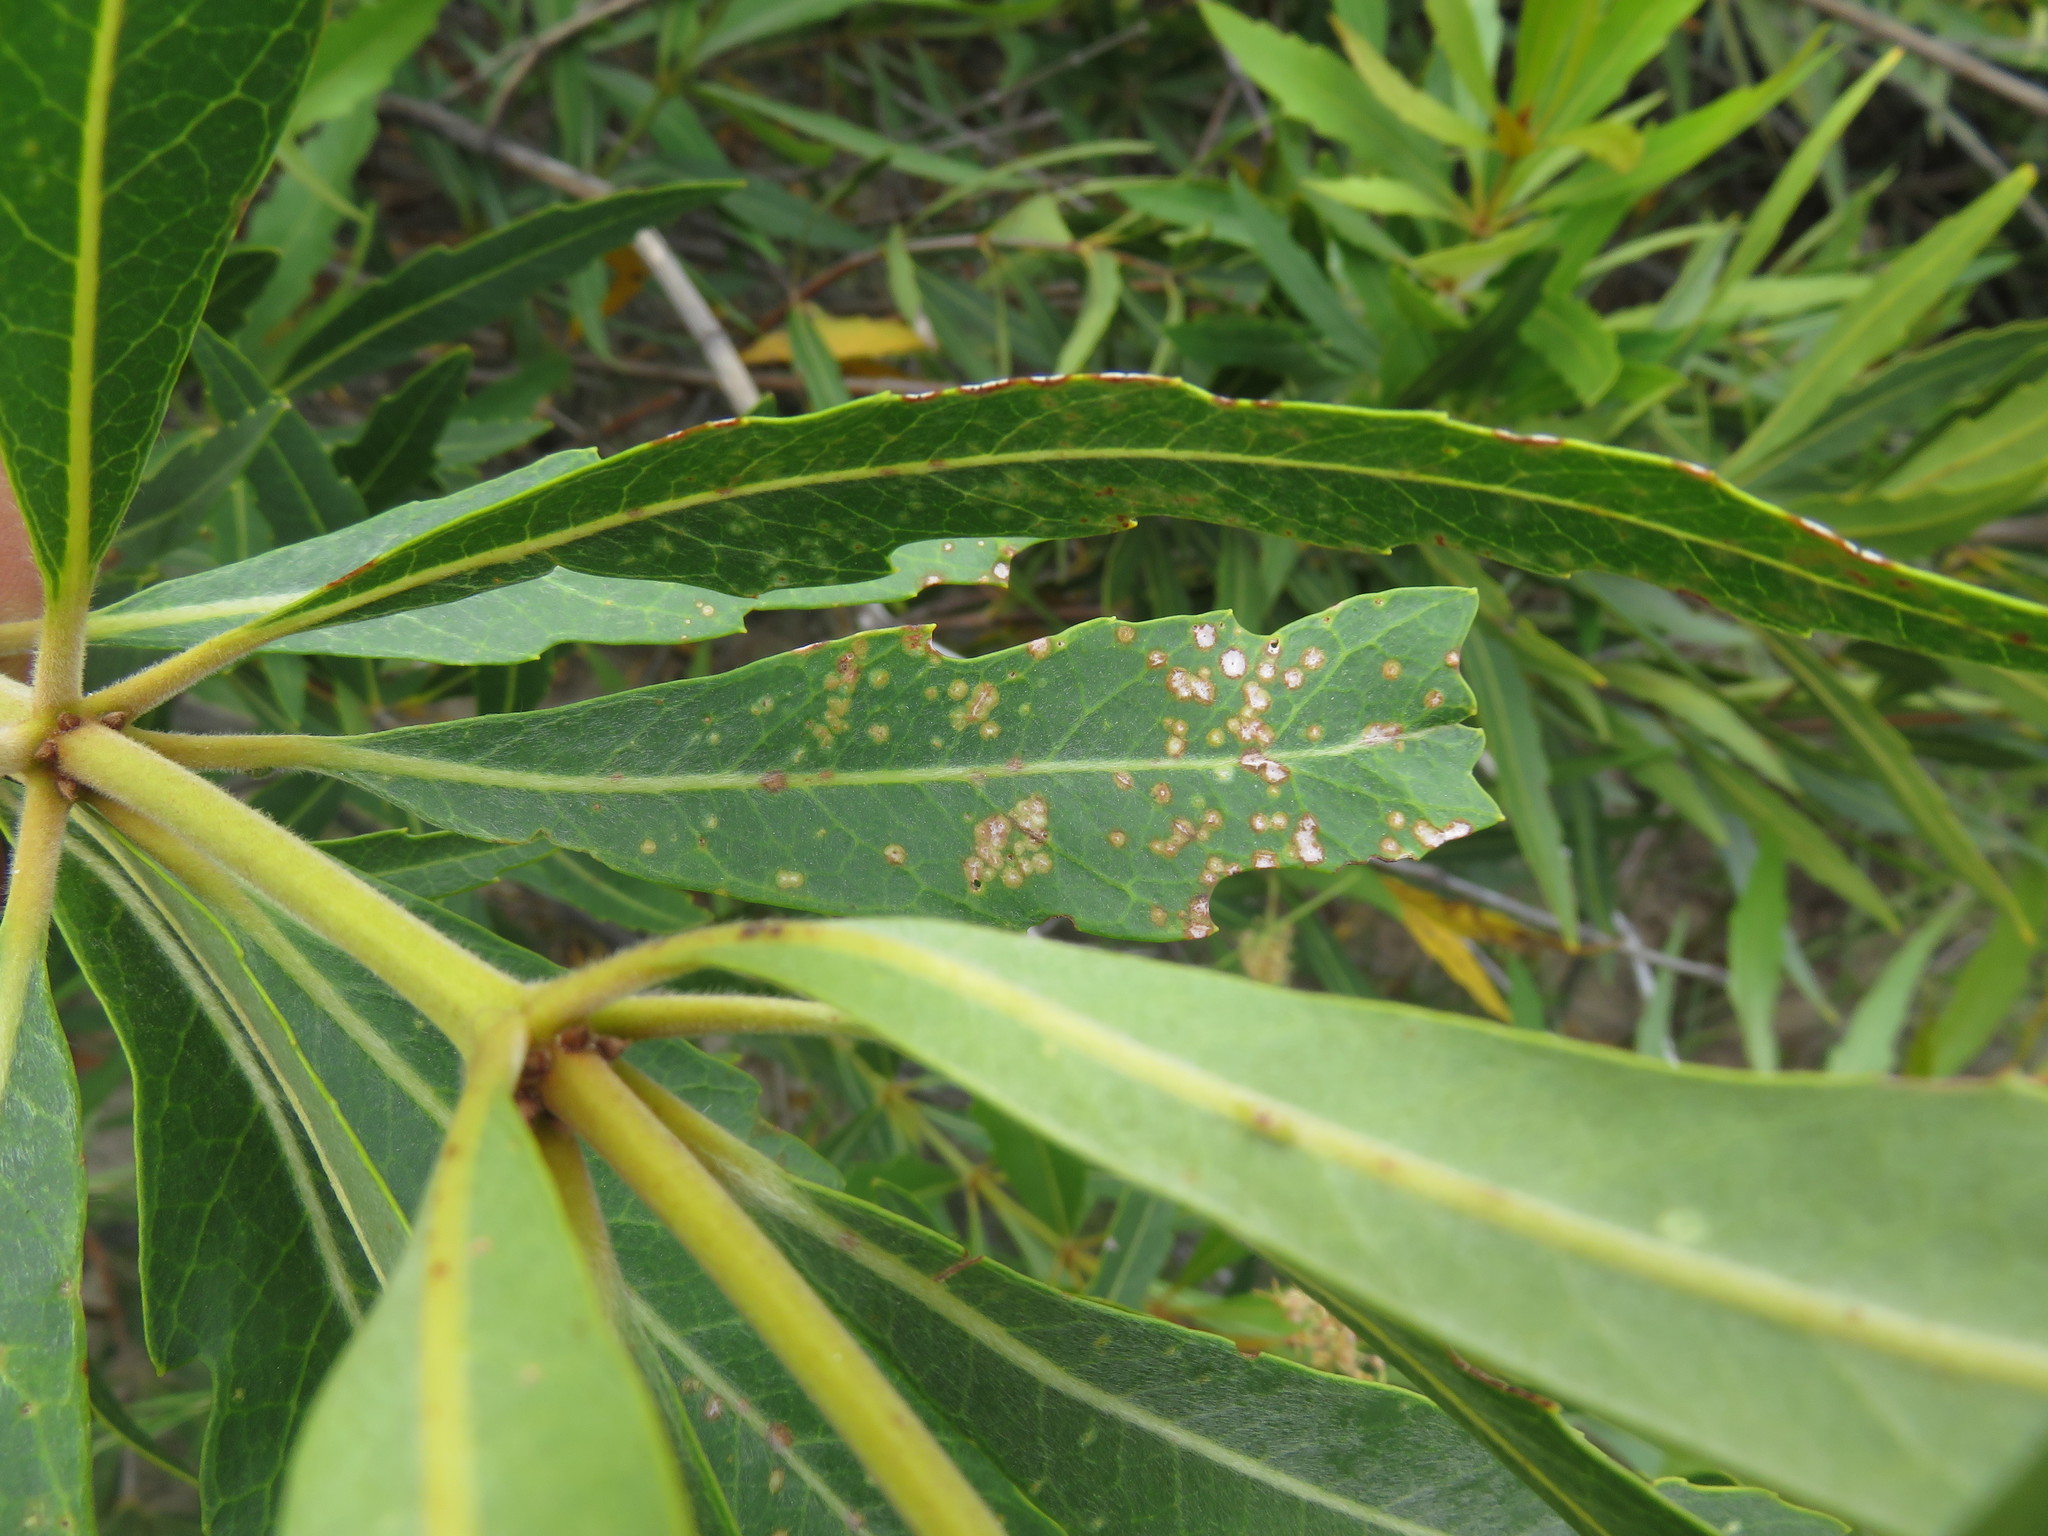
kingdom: Plantae
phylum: Tracheophyta
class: Magnoliopsida
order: Proteales
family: Proteaceae
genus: Brabejum
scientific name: Brabejum stellatifolium
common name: Wild almond
